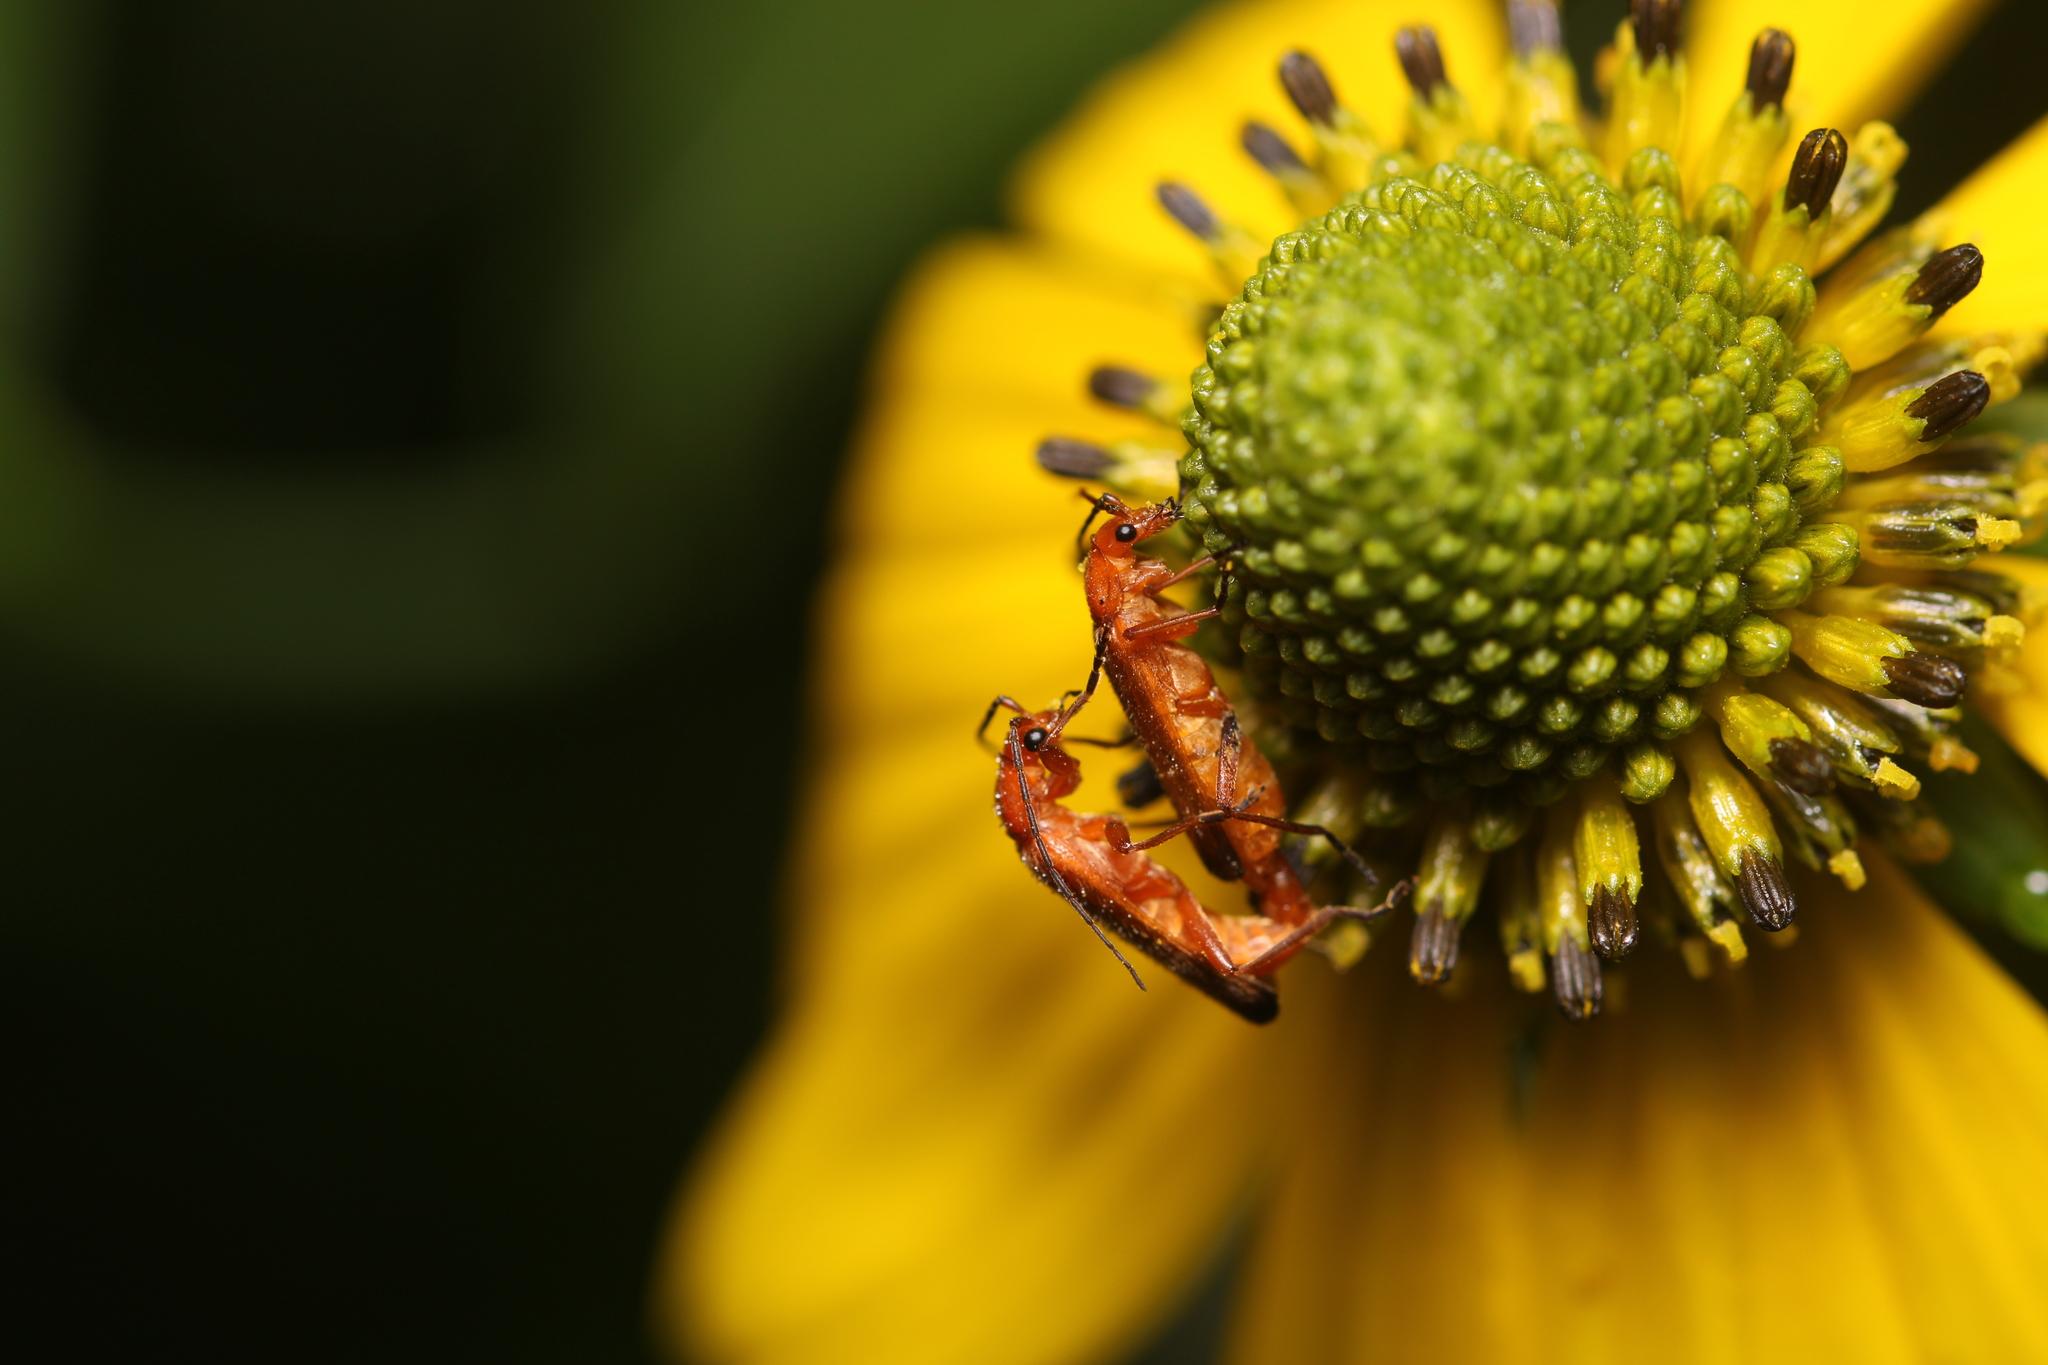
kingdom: Animalia
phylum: Arthropoda
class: Insecta
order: Coleoptera
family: Cantharidae
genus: Rhagonycha
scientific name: Rhagonycha fulva
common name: Common red soldier beetle
